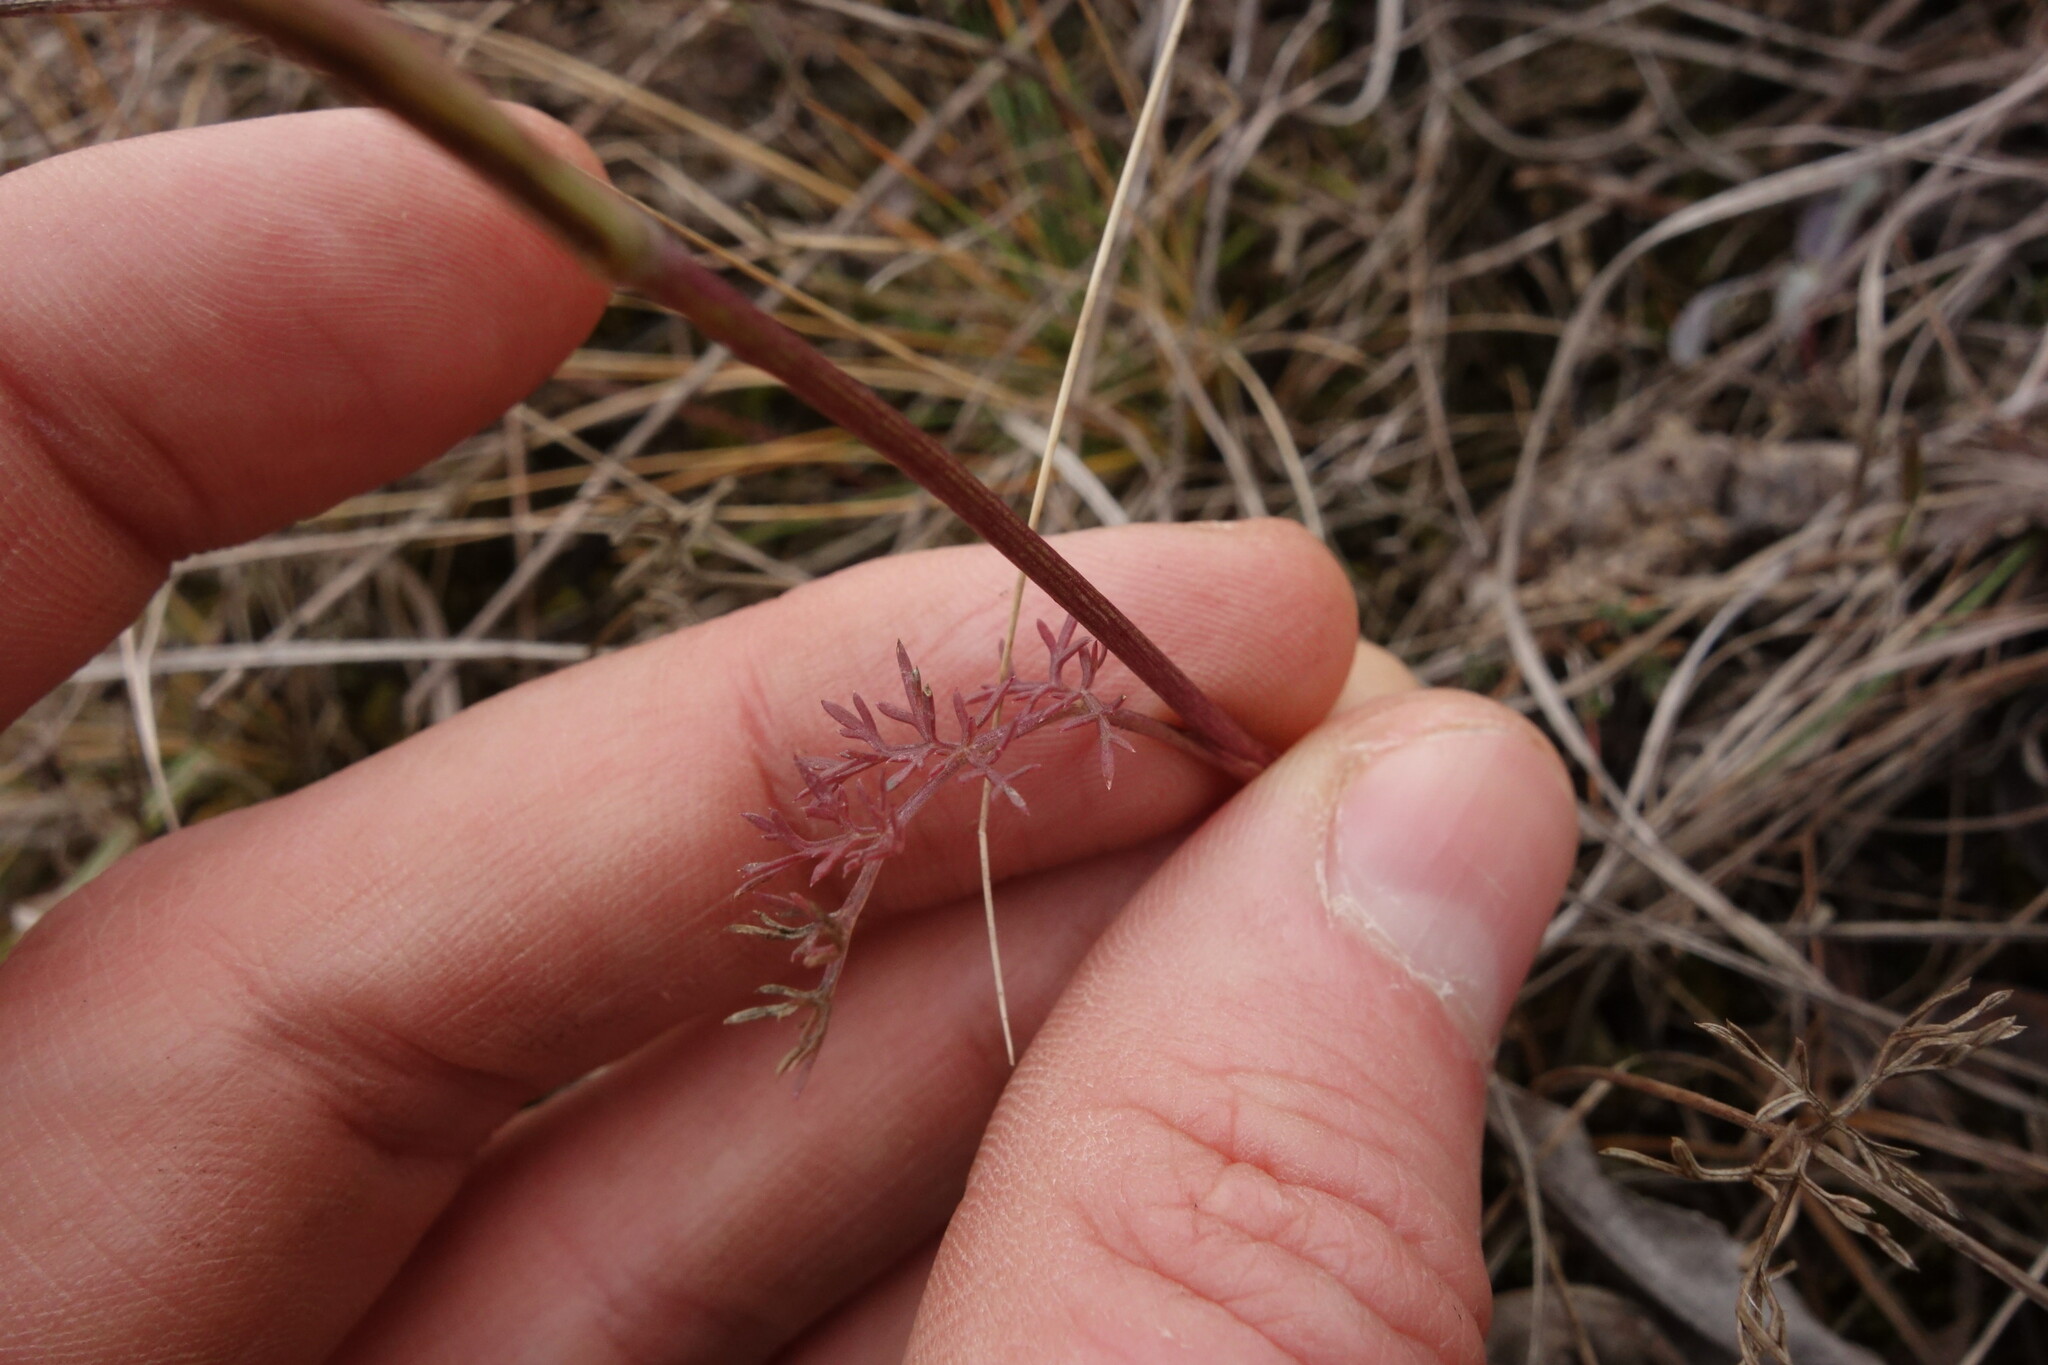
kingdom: Plantae
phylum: Tracheophyta
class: Magnoliopsida
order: Apiales
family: Apiaceae
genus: Seseli
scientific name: Seseli annuum
